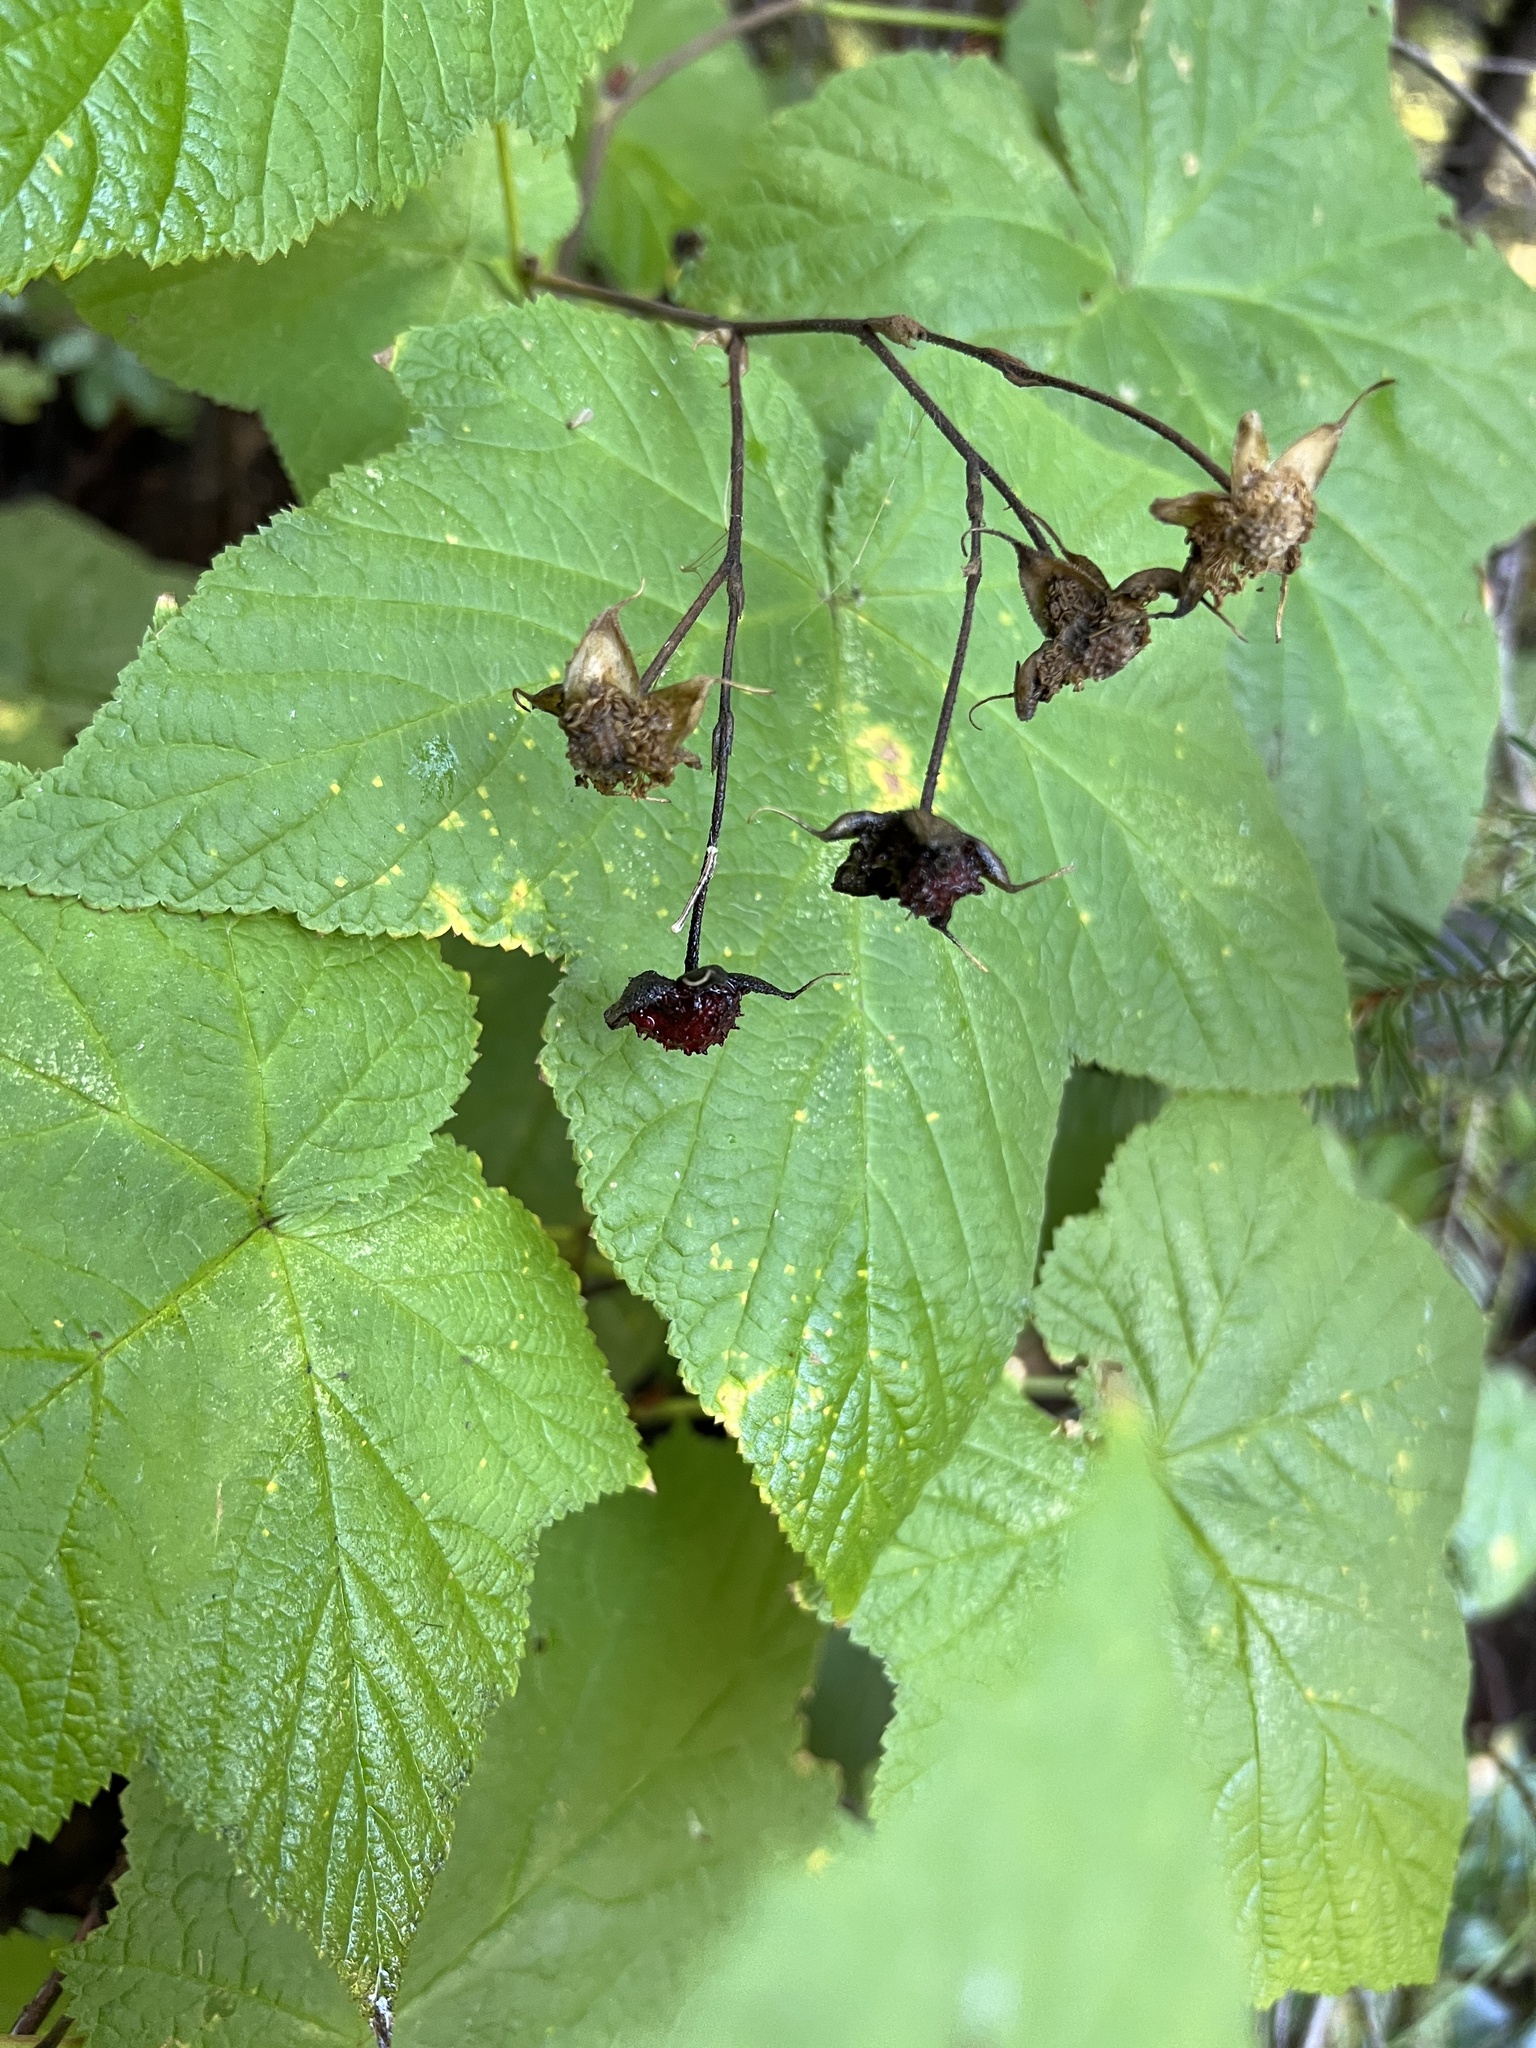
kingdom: Plantae
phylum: Tracheophyta
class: Magnoliopsida
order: Rosales
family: Rosaceae
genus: Rubus
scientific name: Rubus parviflorus
